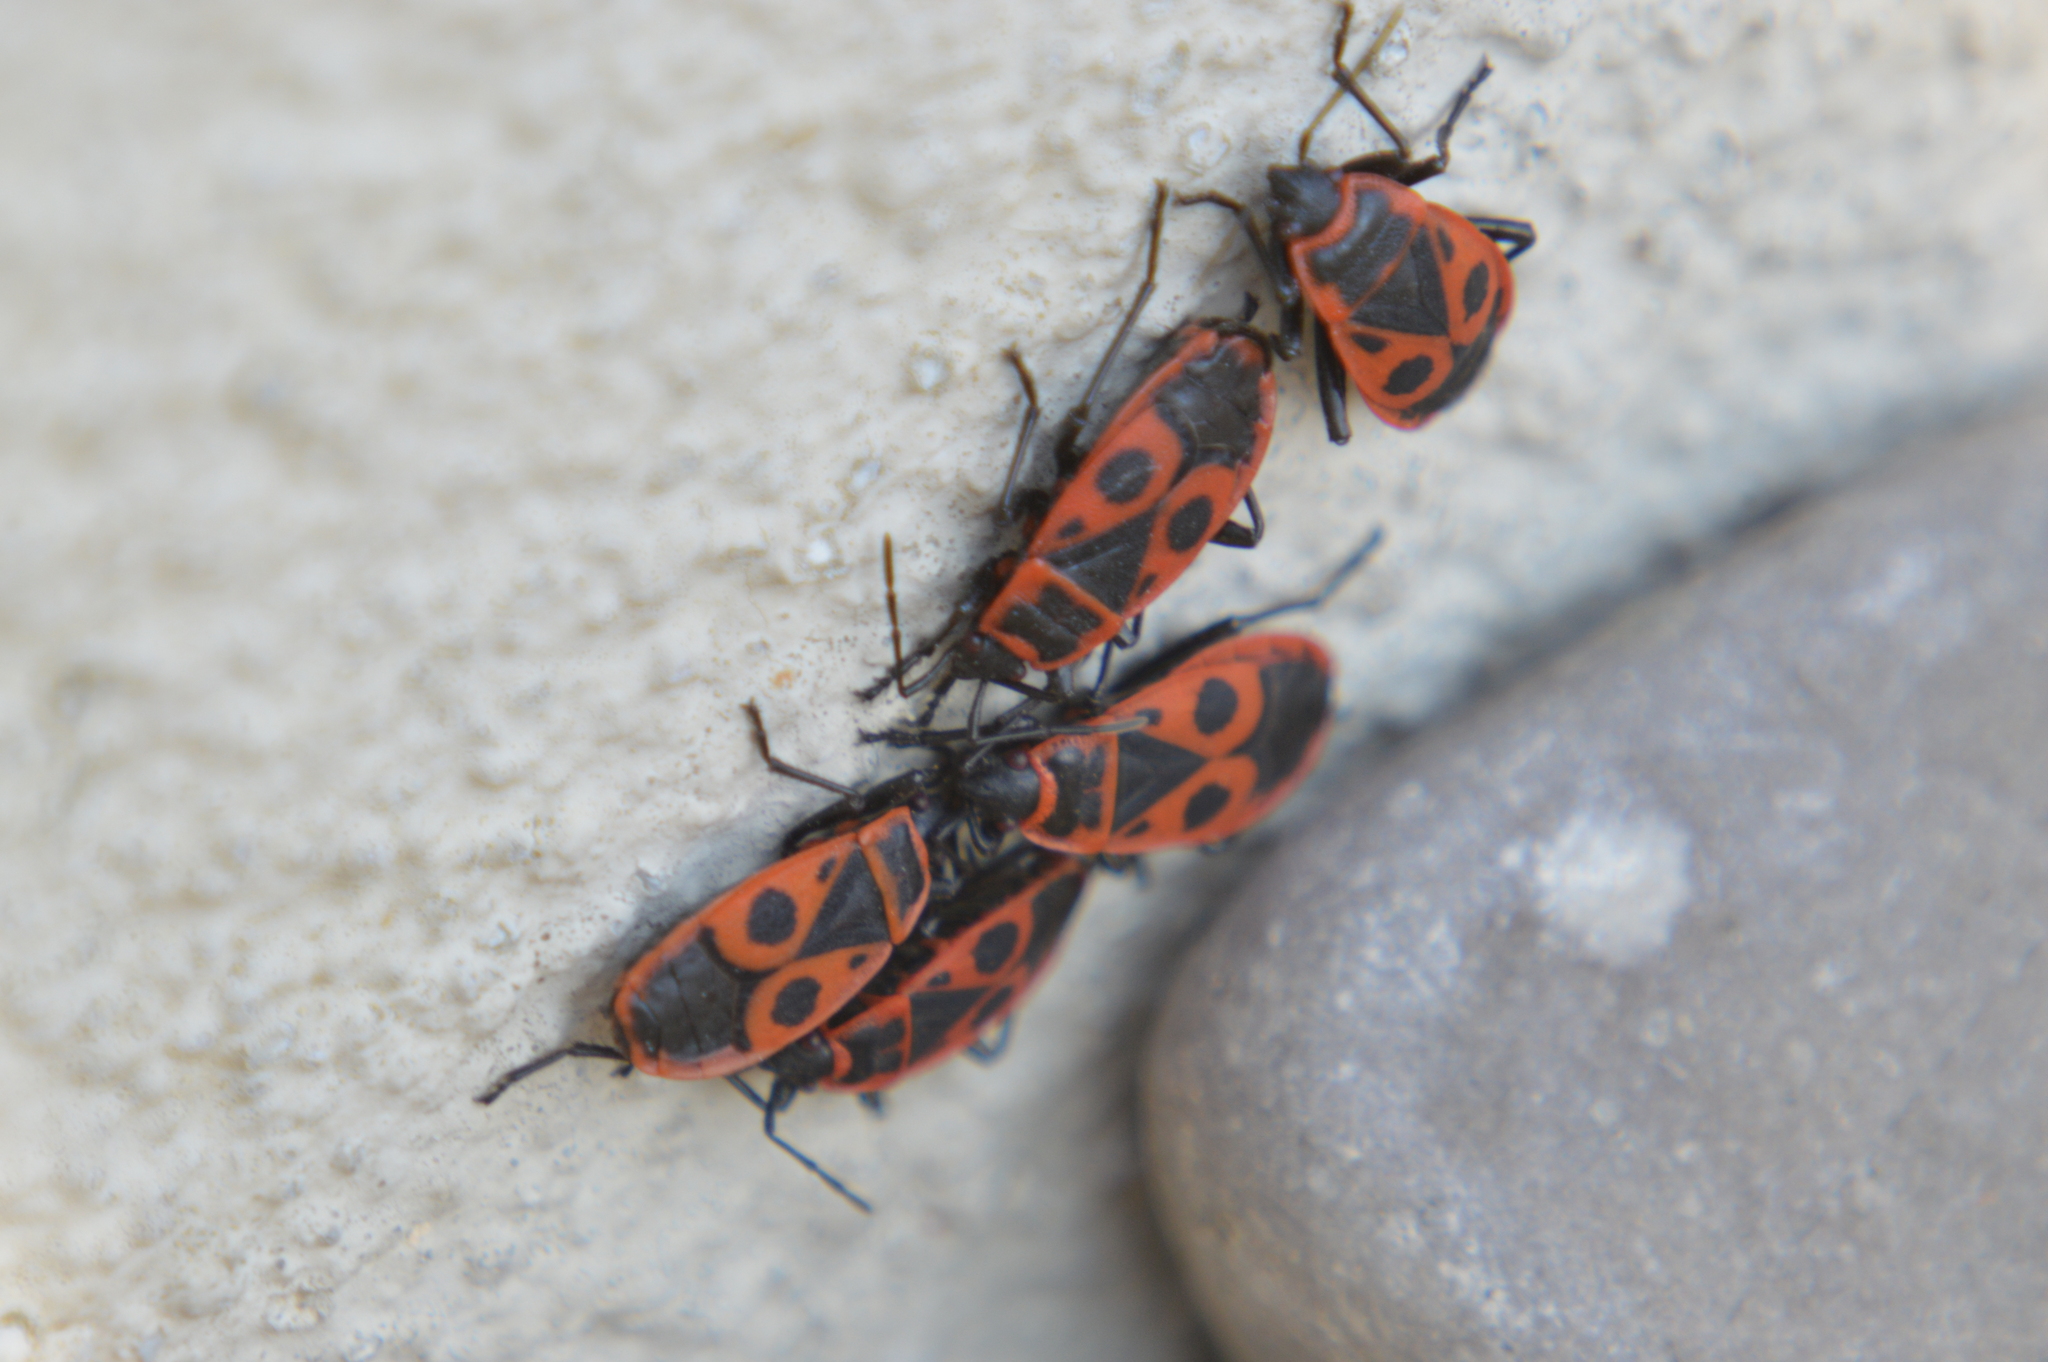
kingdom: Animalia
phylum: Arthropoda
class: Insecta
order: Hemiptera
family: Pyrrhocoridae
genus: Pyrrhocoris
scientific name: Pyrrhocoris apterus
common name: Firebug
